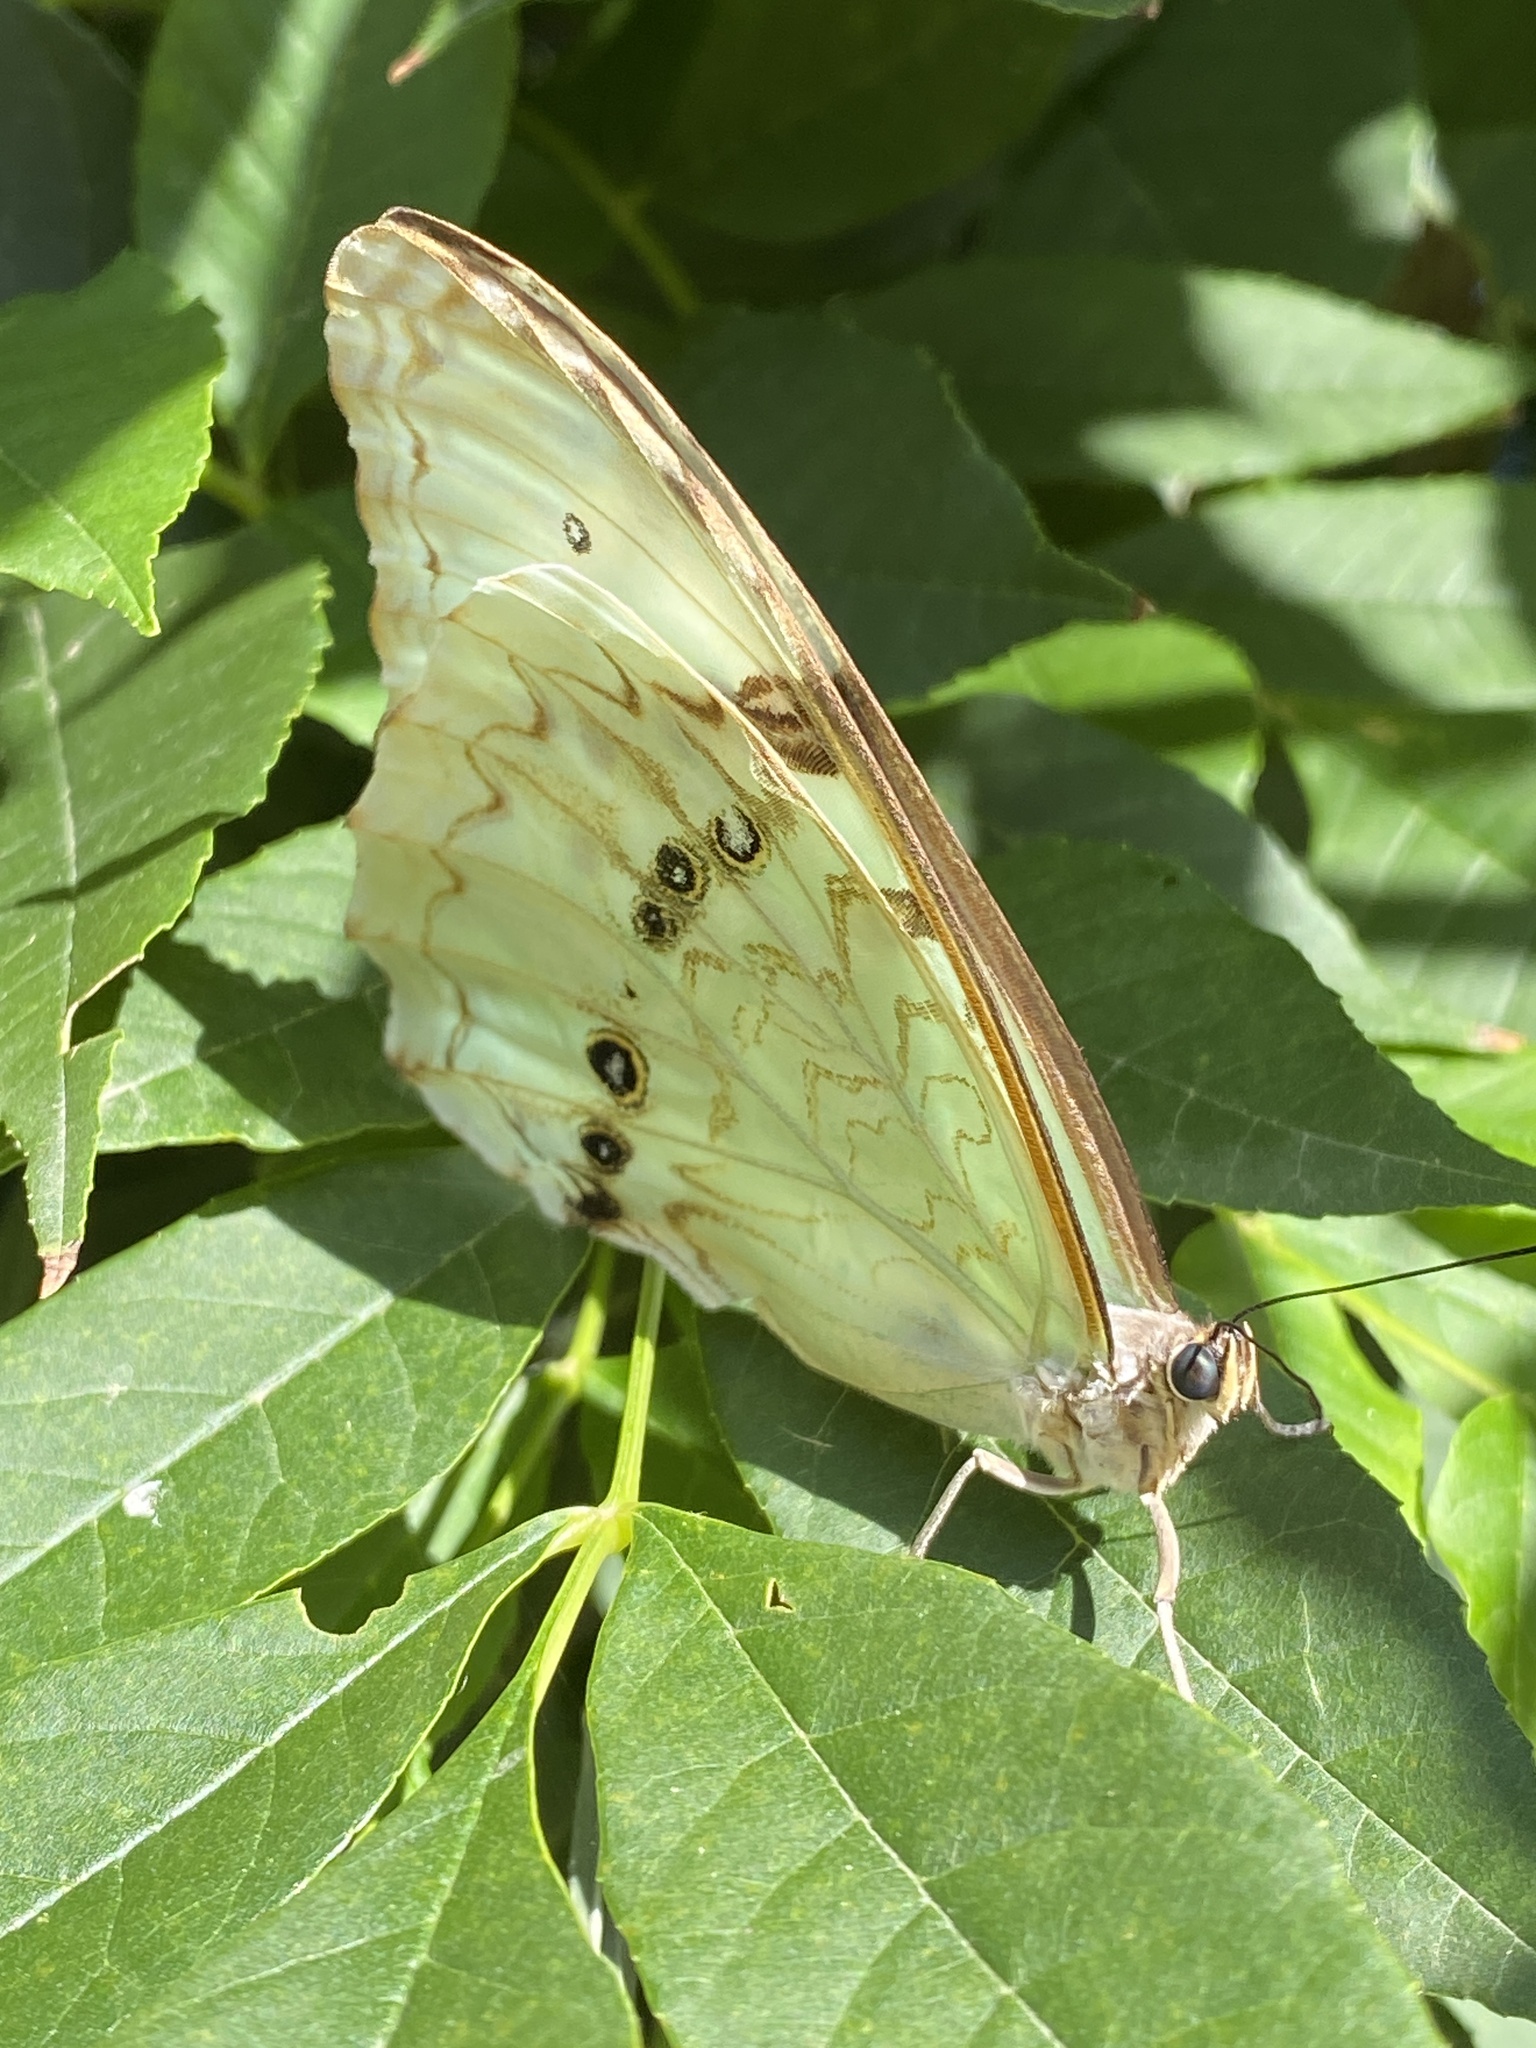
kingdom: Animalia
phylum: Arthropoda
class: Insecta
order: Lepidoptera
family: Nymphalidae
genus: Morpho
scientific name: Morpho epistrophus
